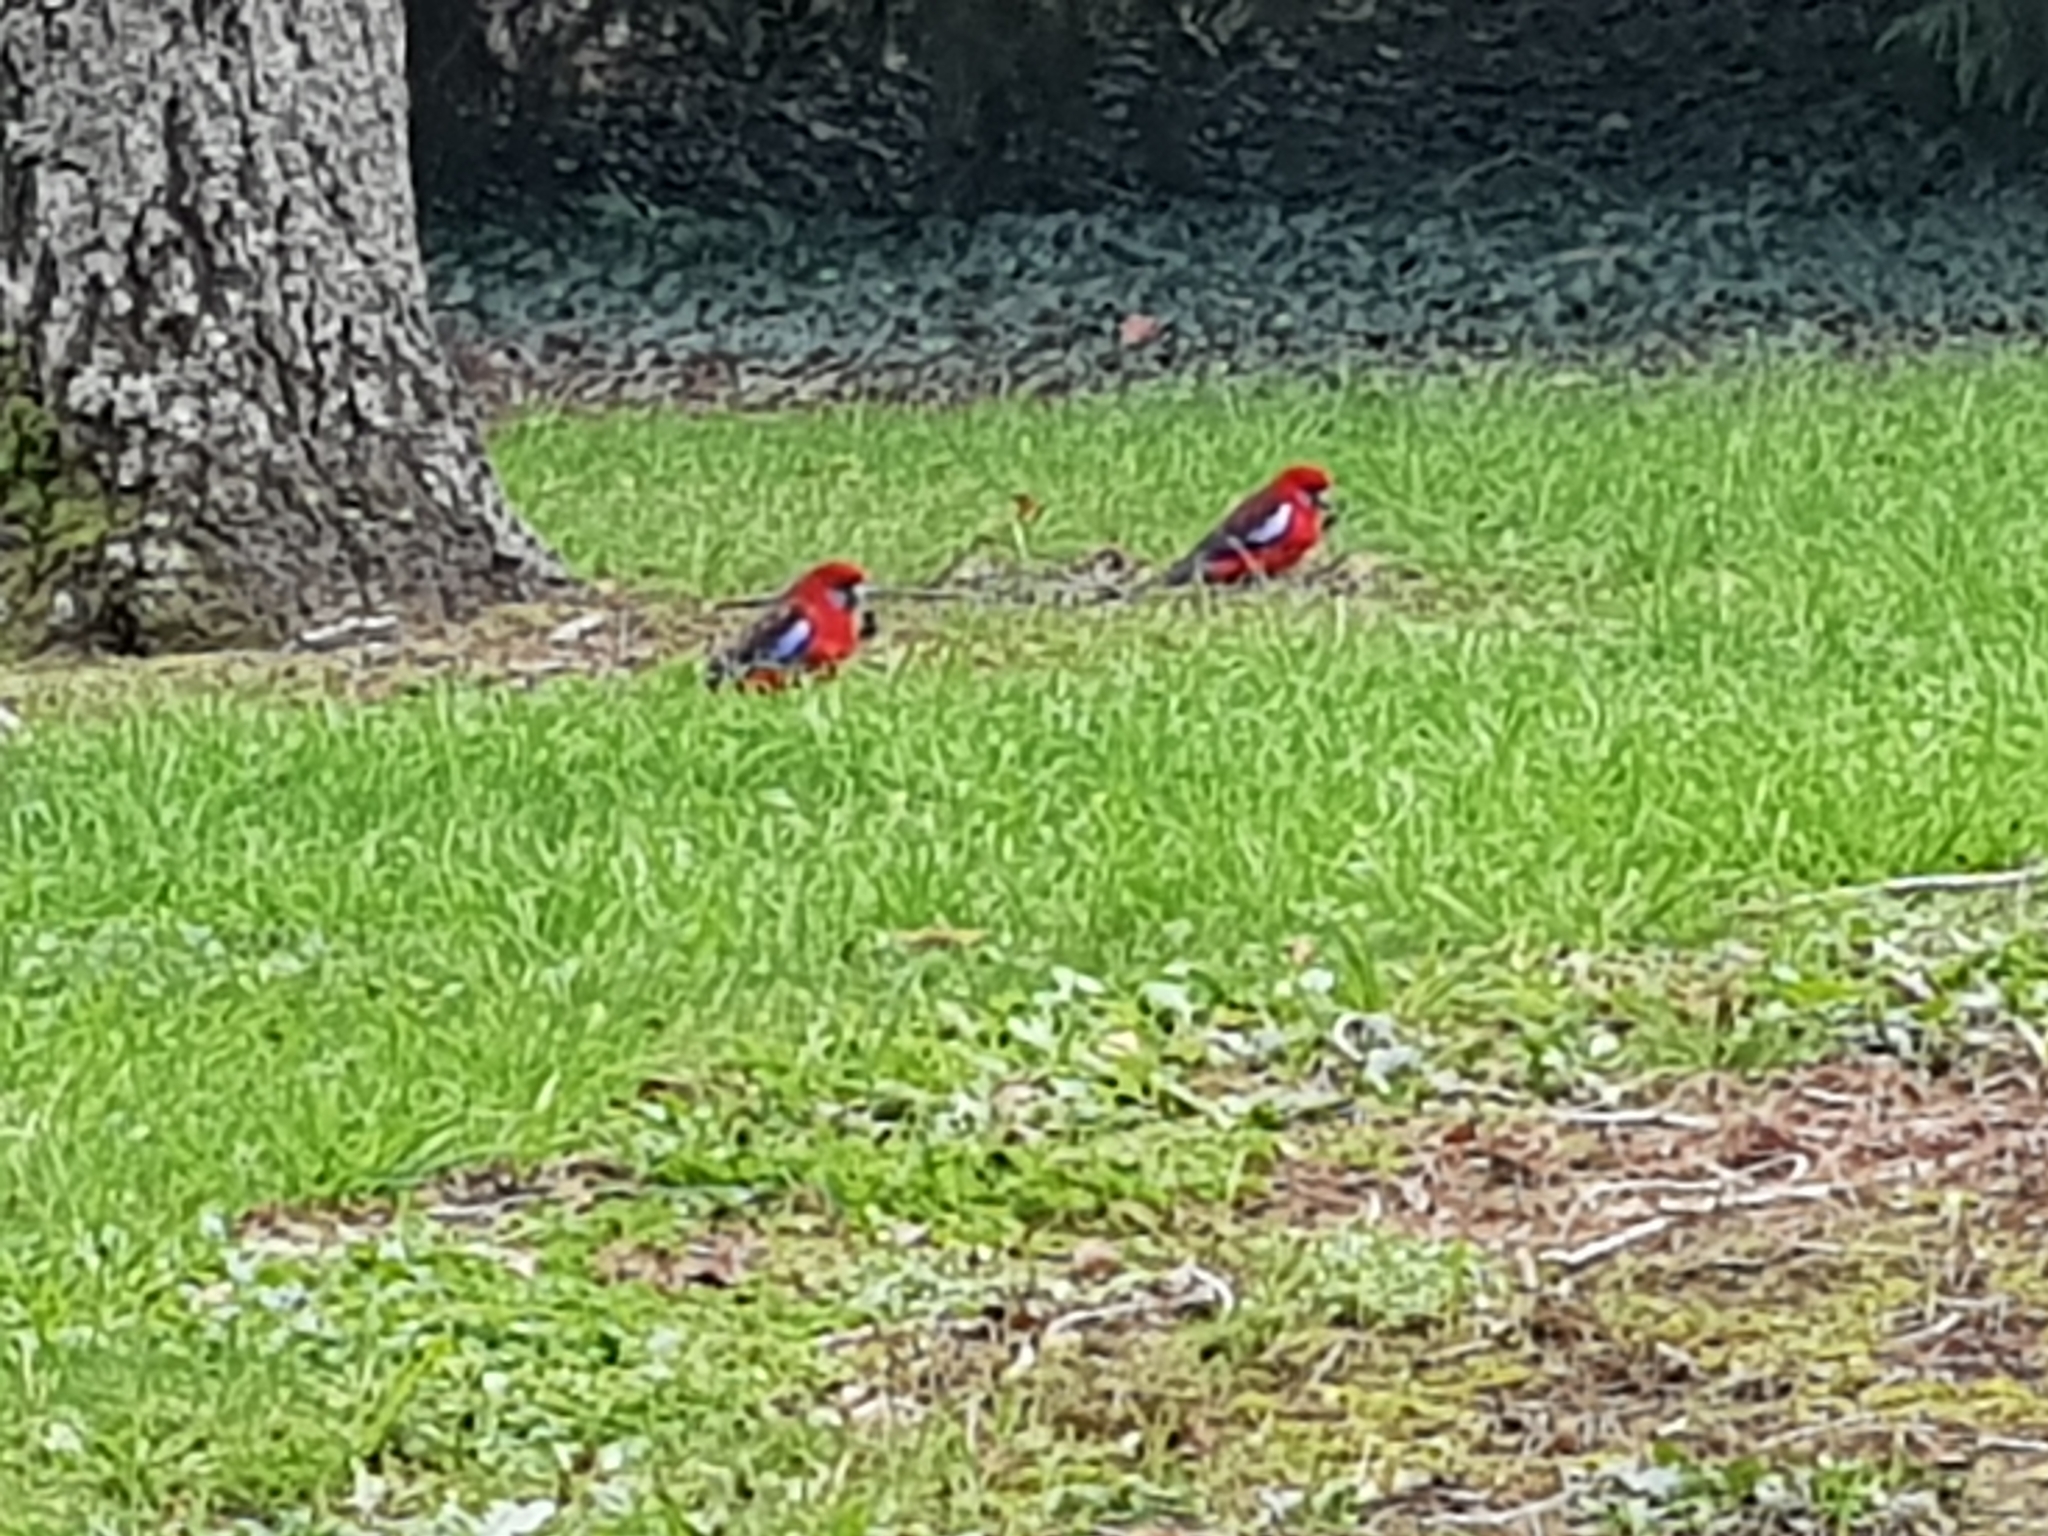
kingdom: Animalia
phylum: Chordata
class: Aves
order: Psittaciformes
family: Psittacidae
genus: Platycercus
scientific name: Platycercus elegans
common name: Crimson rosella
